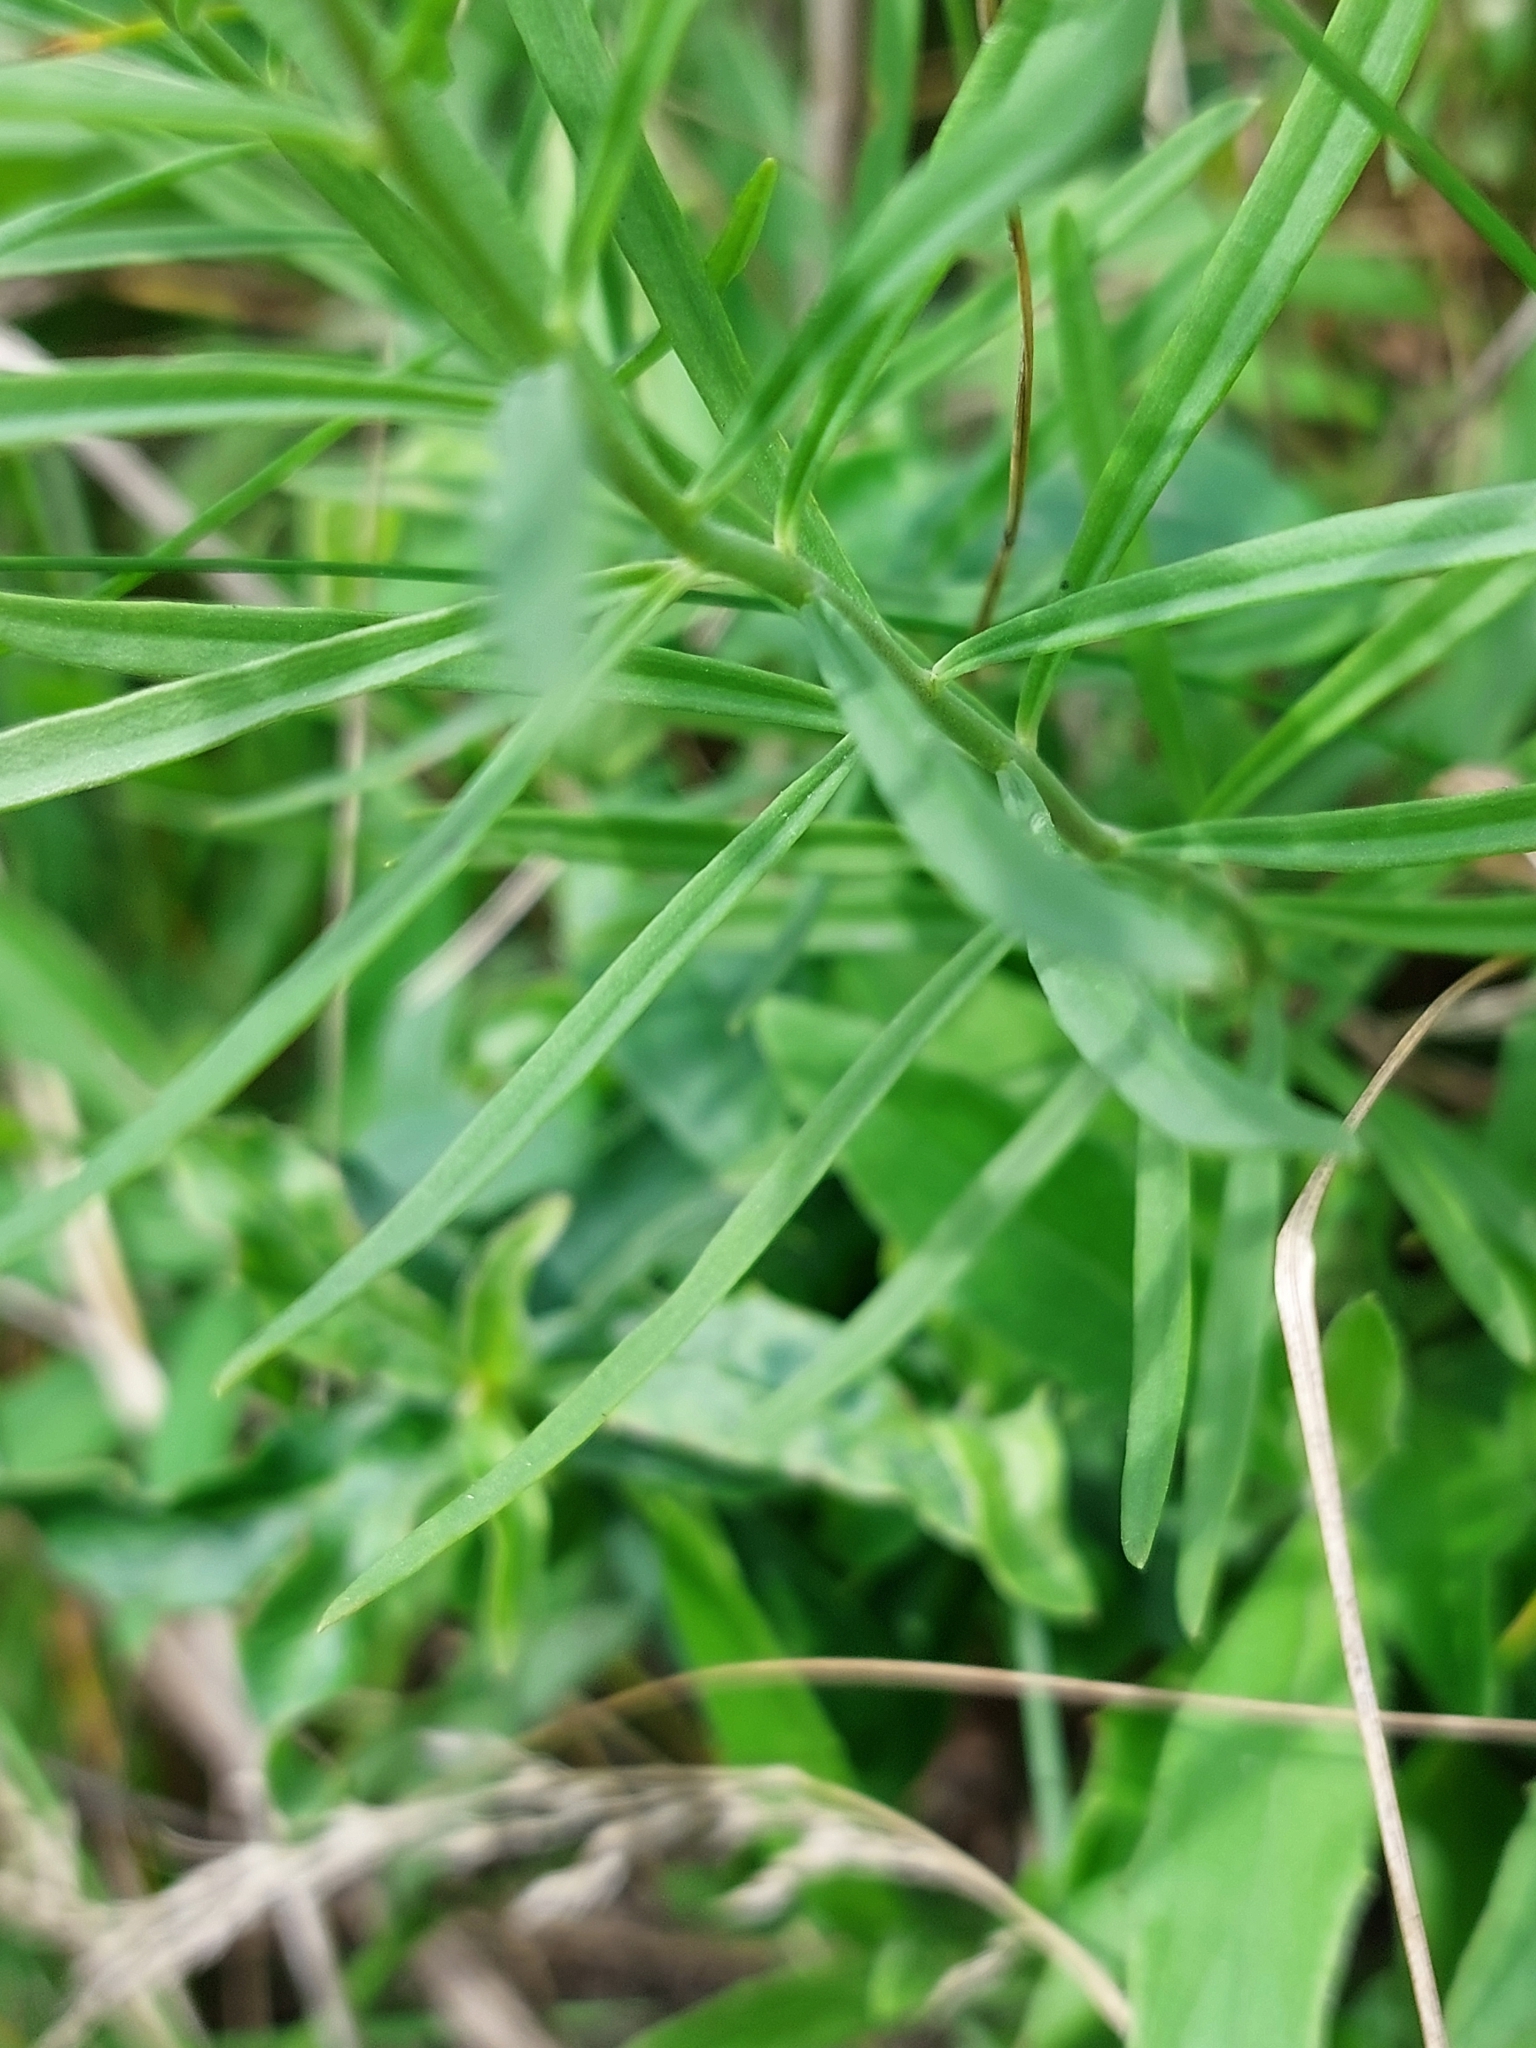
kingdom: Plantae
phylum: Tracheophyta
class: Magnoliopsida
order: Lamiales
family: Plantaginaceae
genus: Linaria
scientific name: Linaria vulgaris
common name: Butter and eggs
